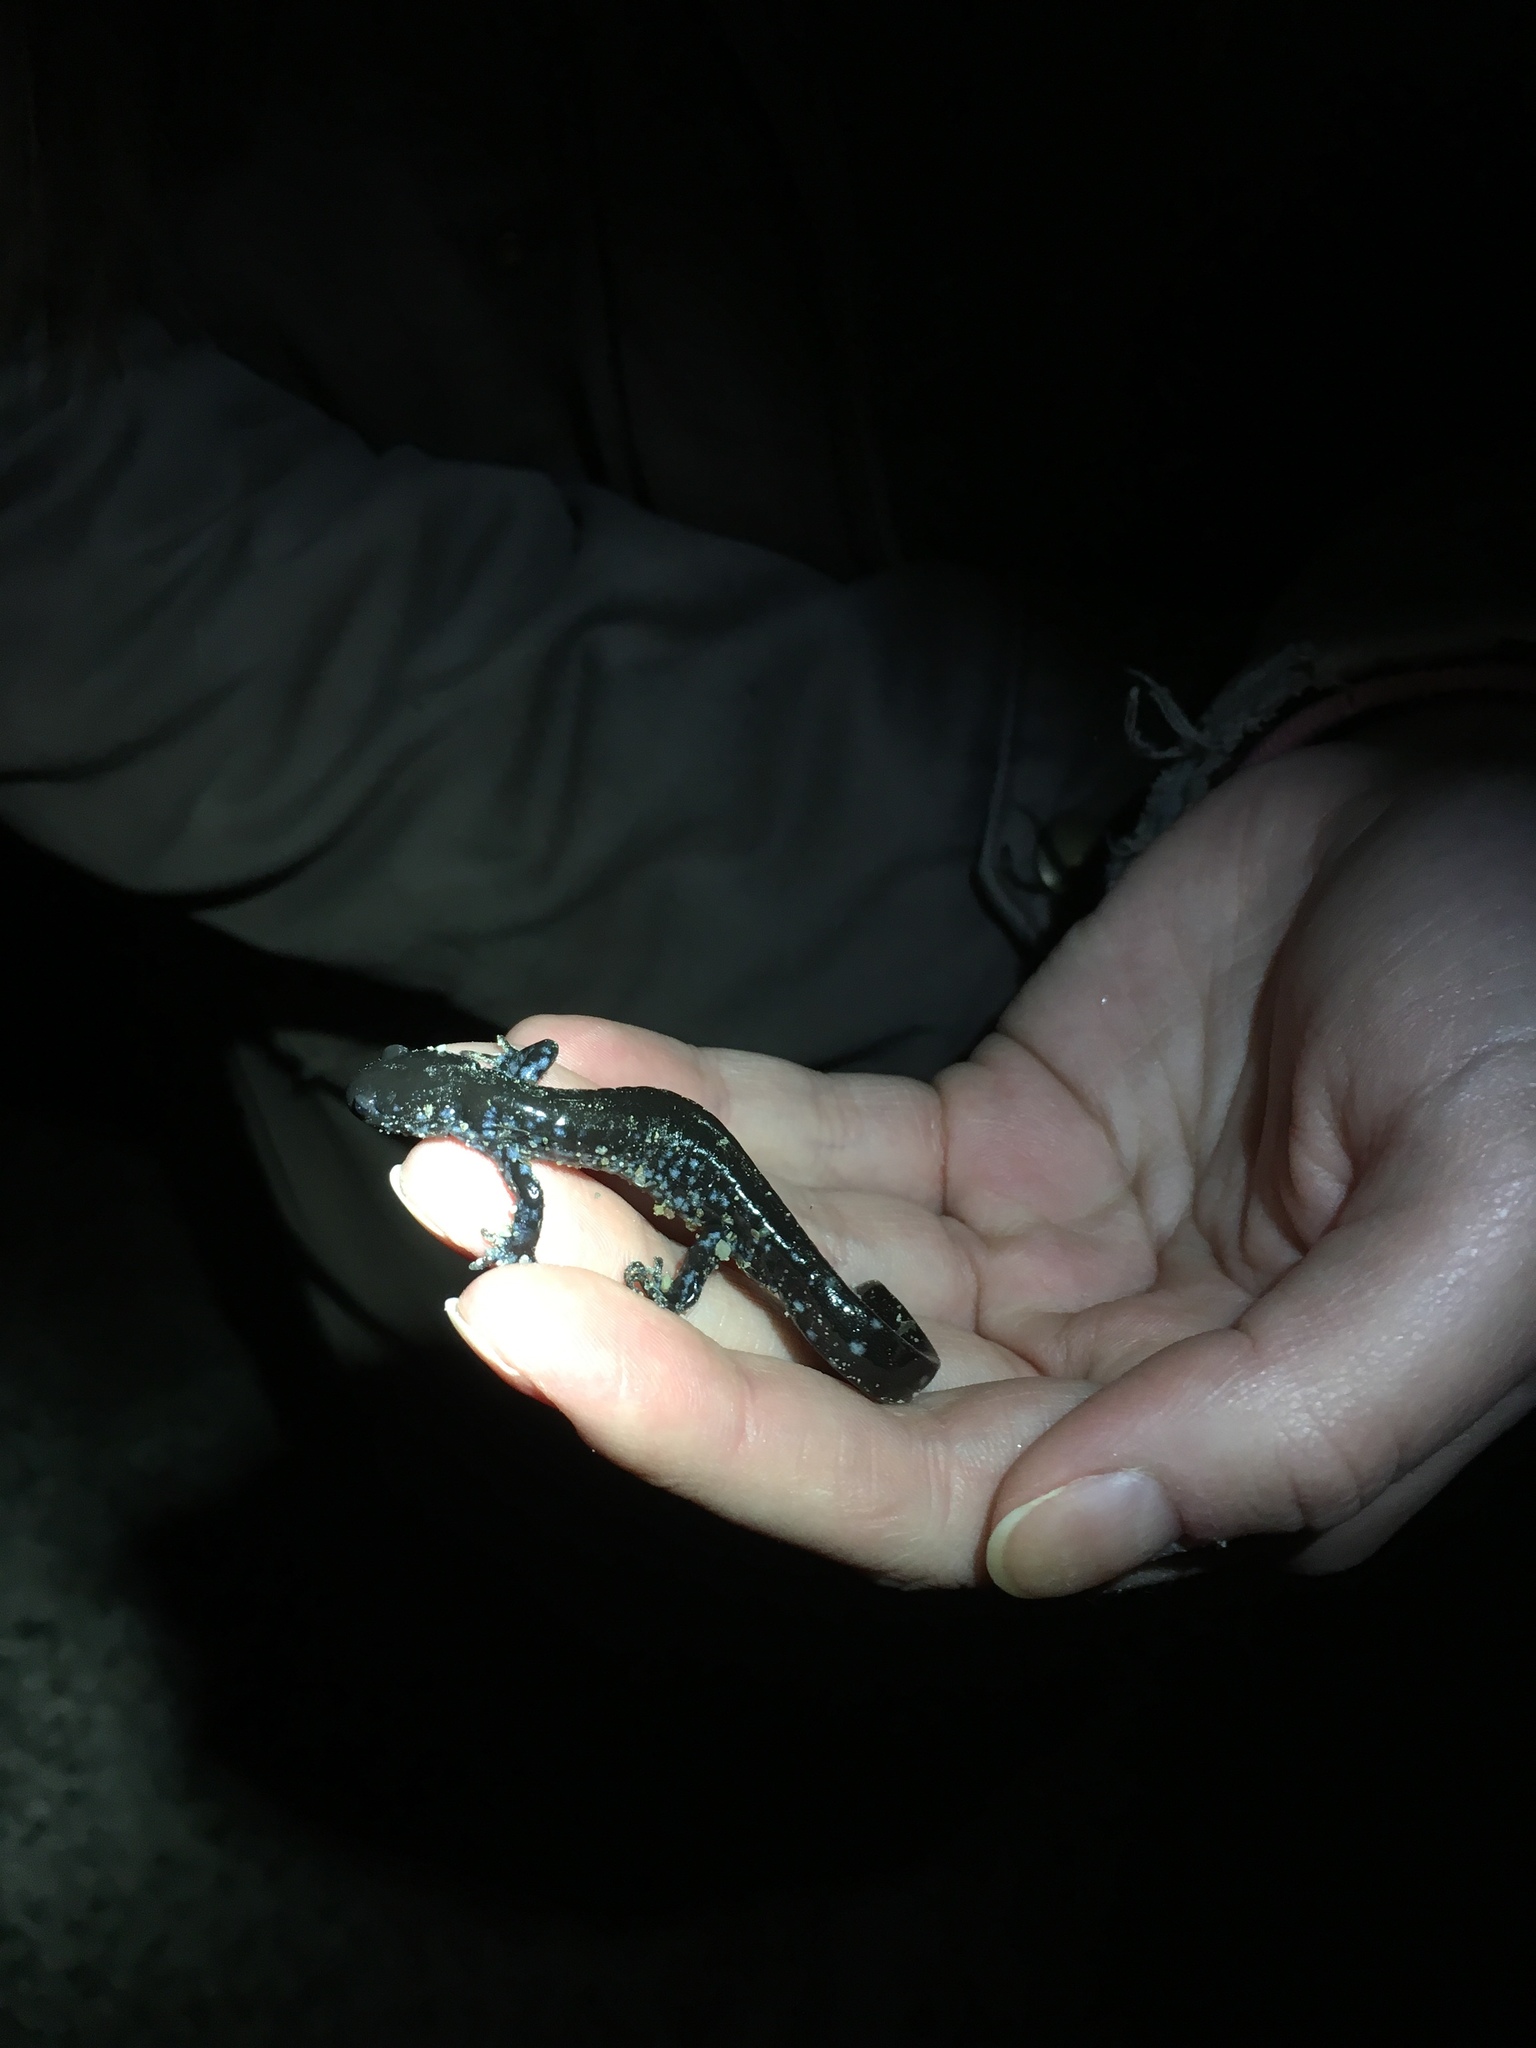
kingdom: Animalia
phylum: Chordata
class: Amphibia
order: Caudata
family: Ambystomatidae
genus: Ambystoma
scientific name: Ambystoma laterale
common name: Blue-spotted salamander
